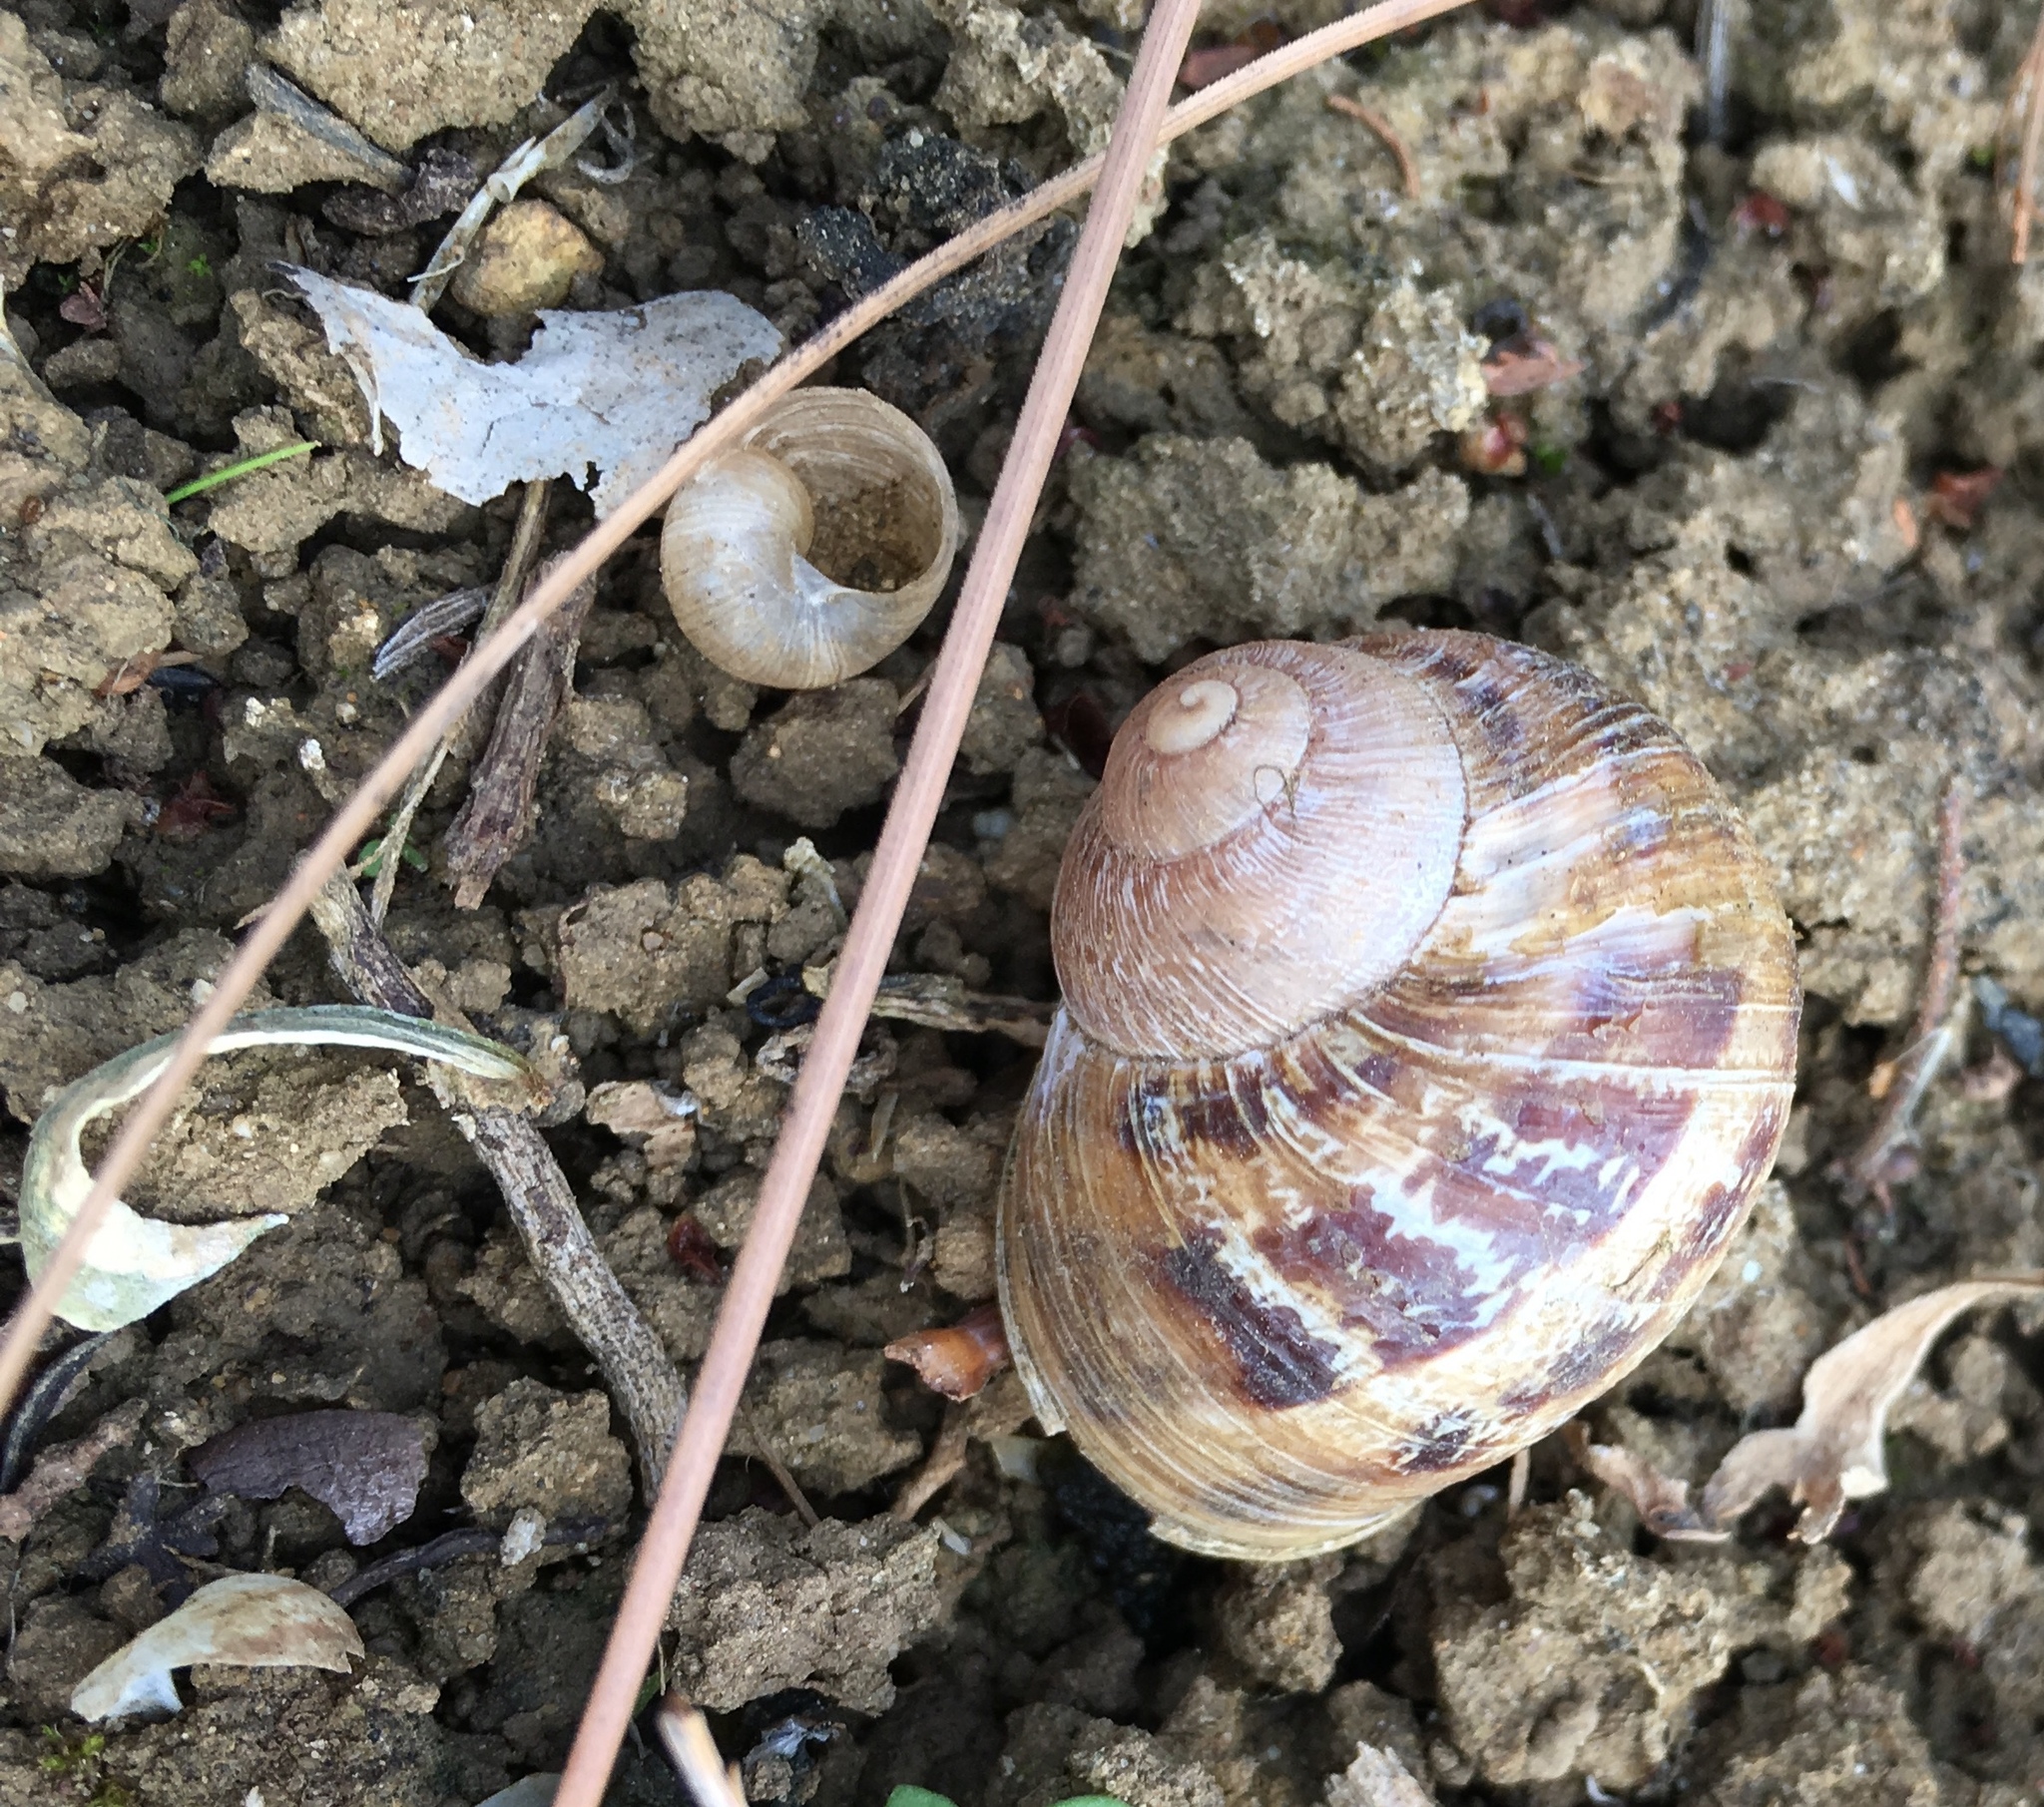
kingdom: Animalia
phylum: Mollusca
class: Gastropoda
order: Stylommatophora
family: Helicidae
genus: Cornu
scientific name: Cornu aspersum
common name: Brown garden snail
